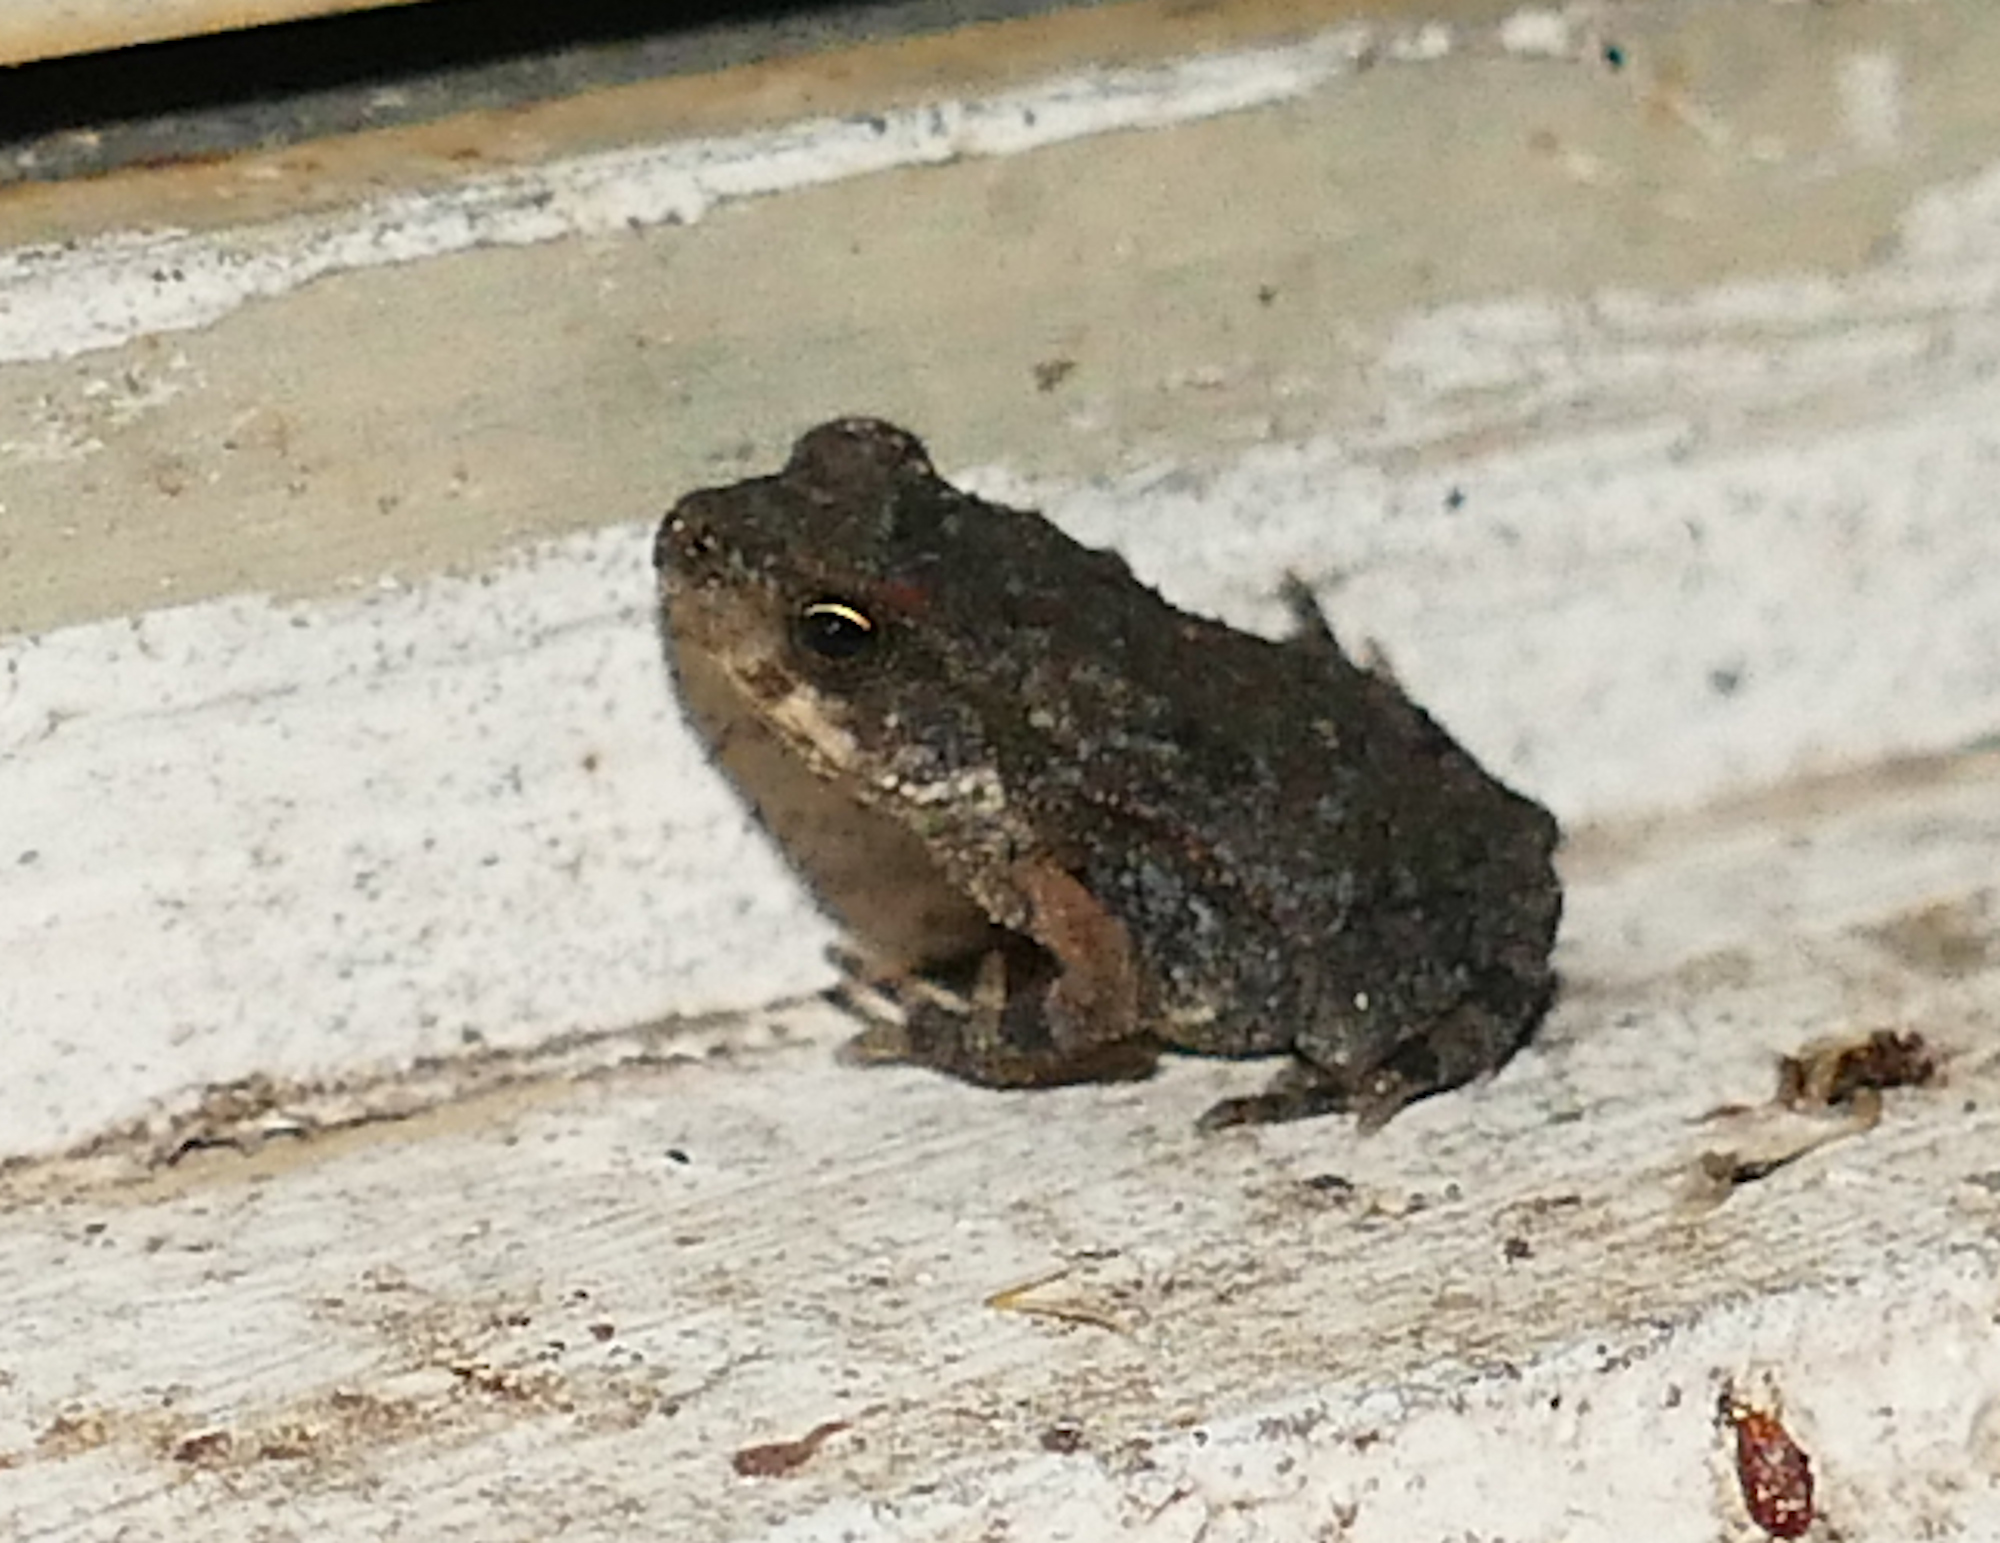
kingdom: Animalia
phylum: Chordata
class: Amphibia
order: Anura
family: Bufonidae
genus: Incilius
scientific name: Incilius nebulifer
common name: Gulf coast toad
